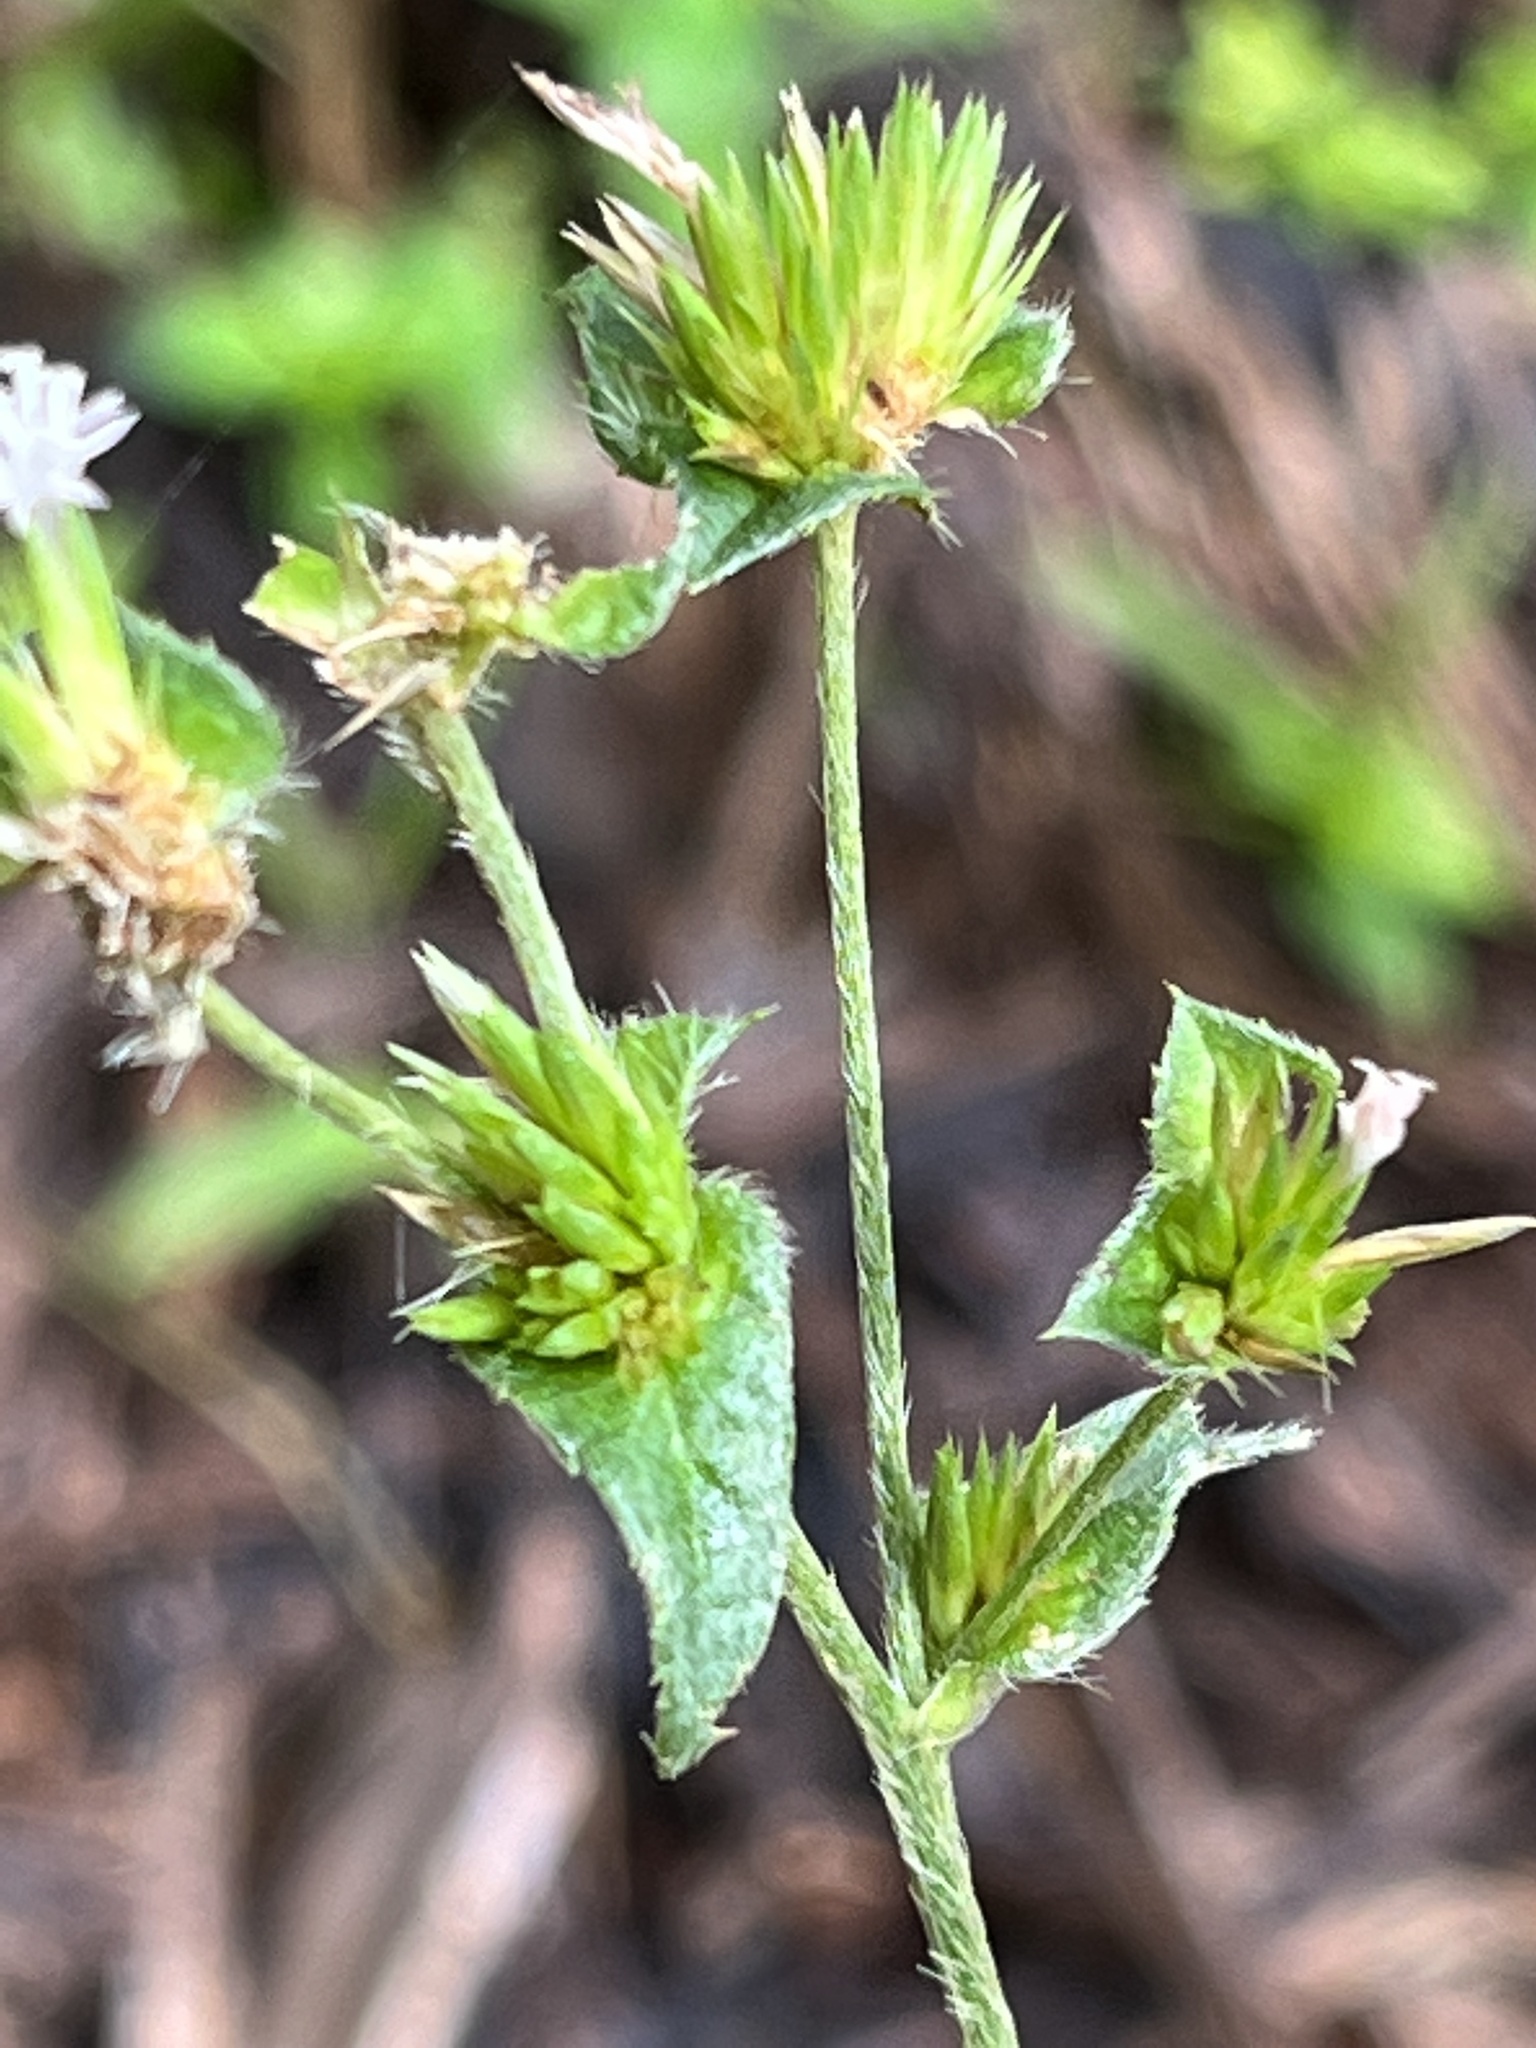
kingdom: Plantae
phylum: Tracheophyta
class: Magnoliopsida
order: Asterales
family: Asteraceae
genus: Elephantopus
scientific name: Elephantopus mollis
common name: Soft elephantsfoot
